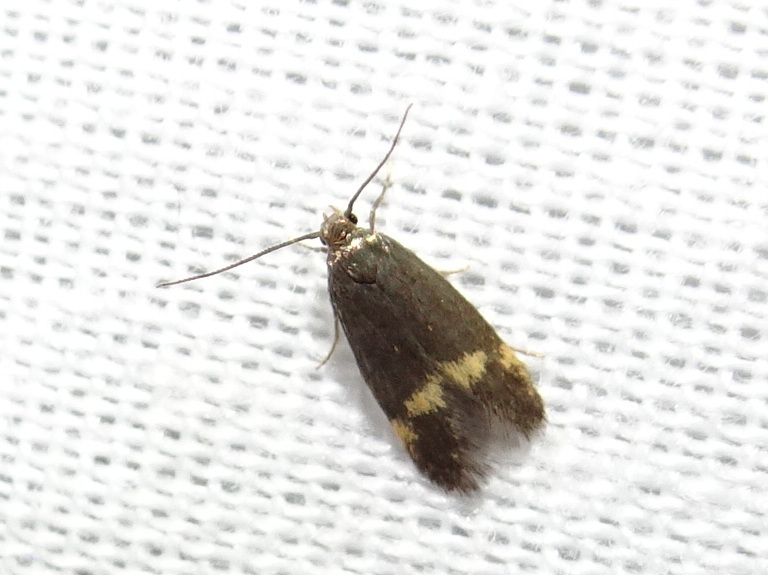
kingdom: Animalia
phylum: Arthropoda
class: Insecta
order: Lepidoptera
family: Oecophoridae
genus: Borkhausenia
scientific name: Borkhausenia minutella
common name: Thatch tubic
